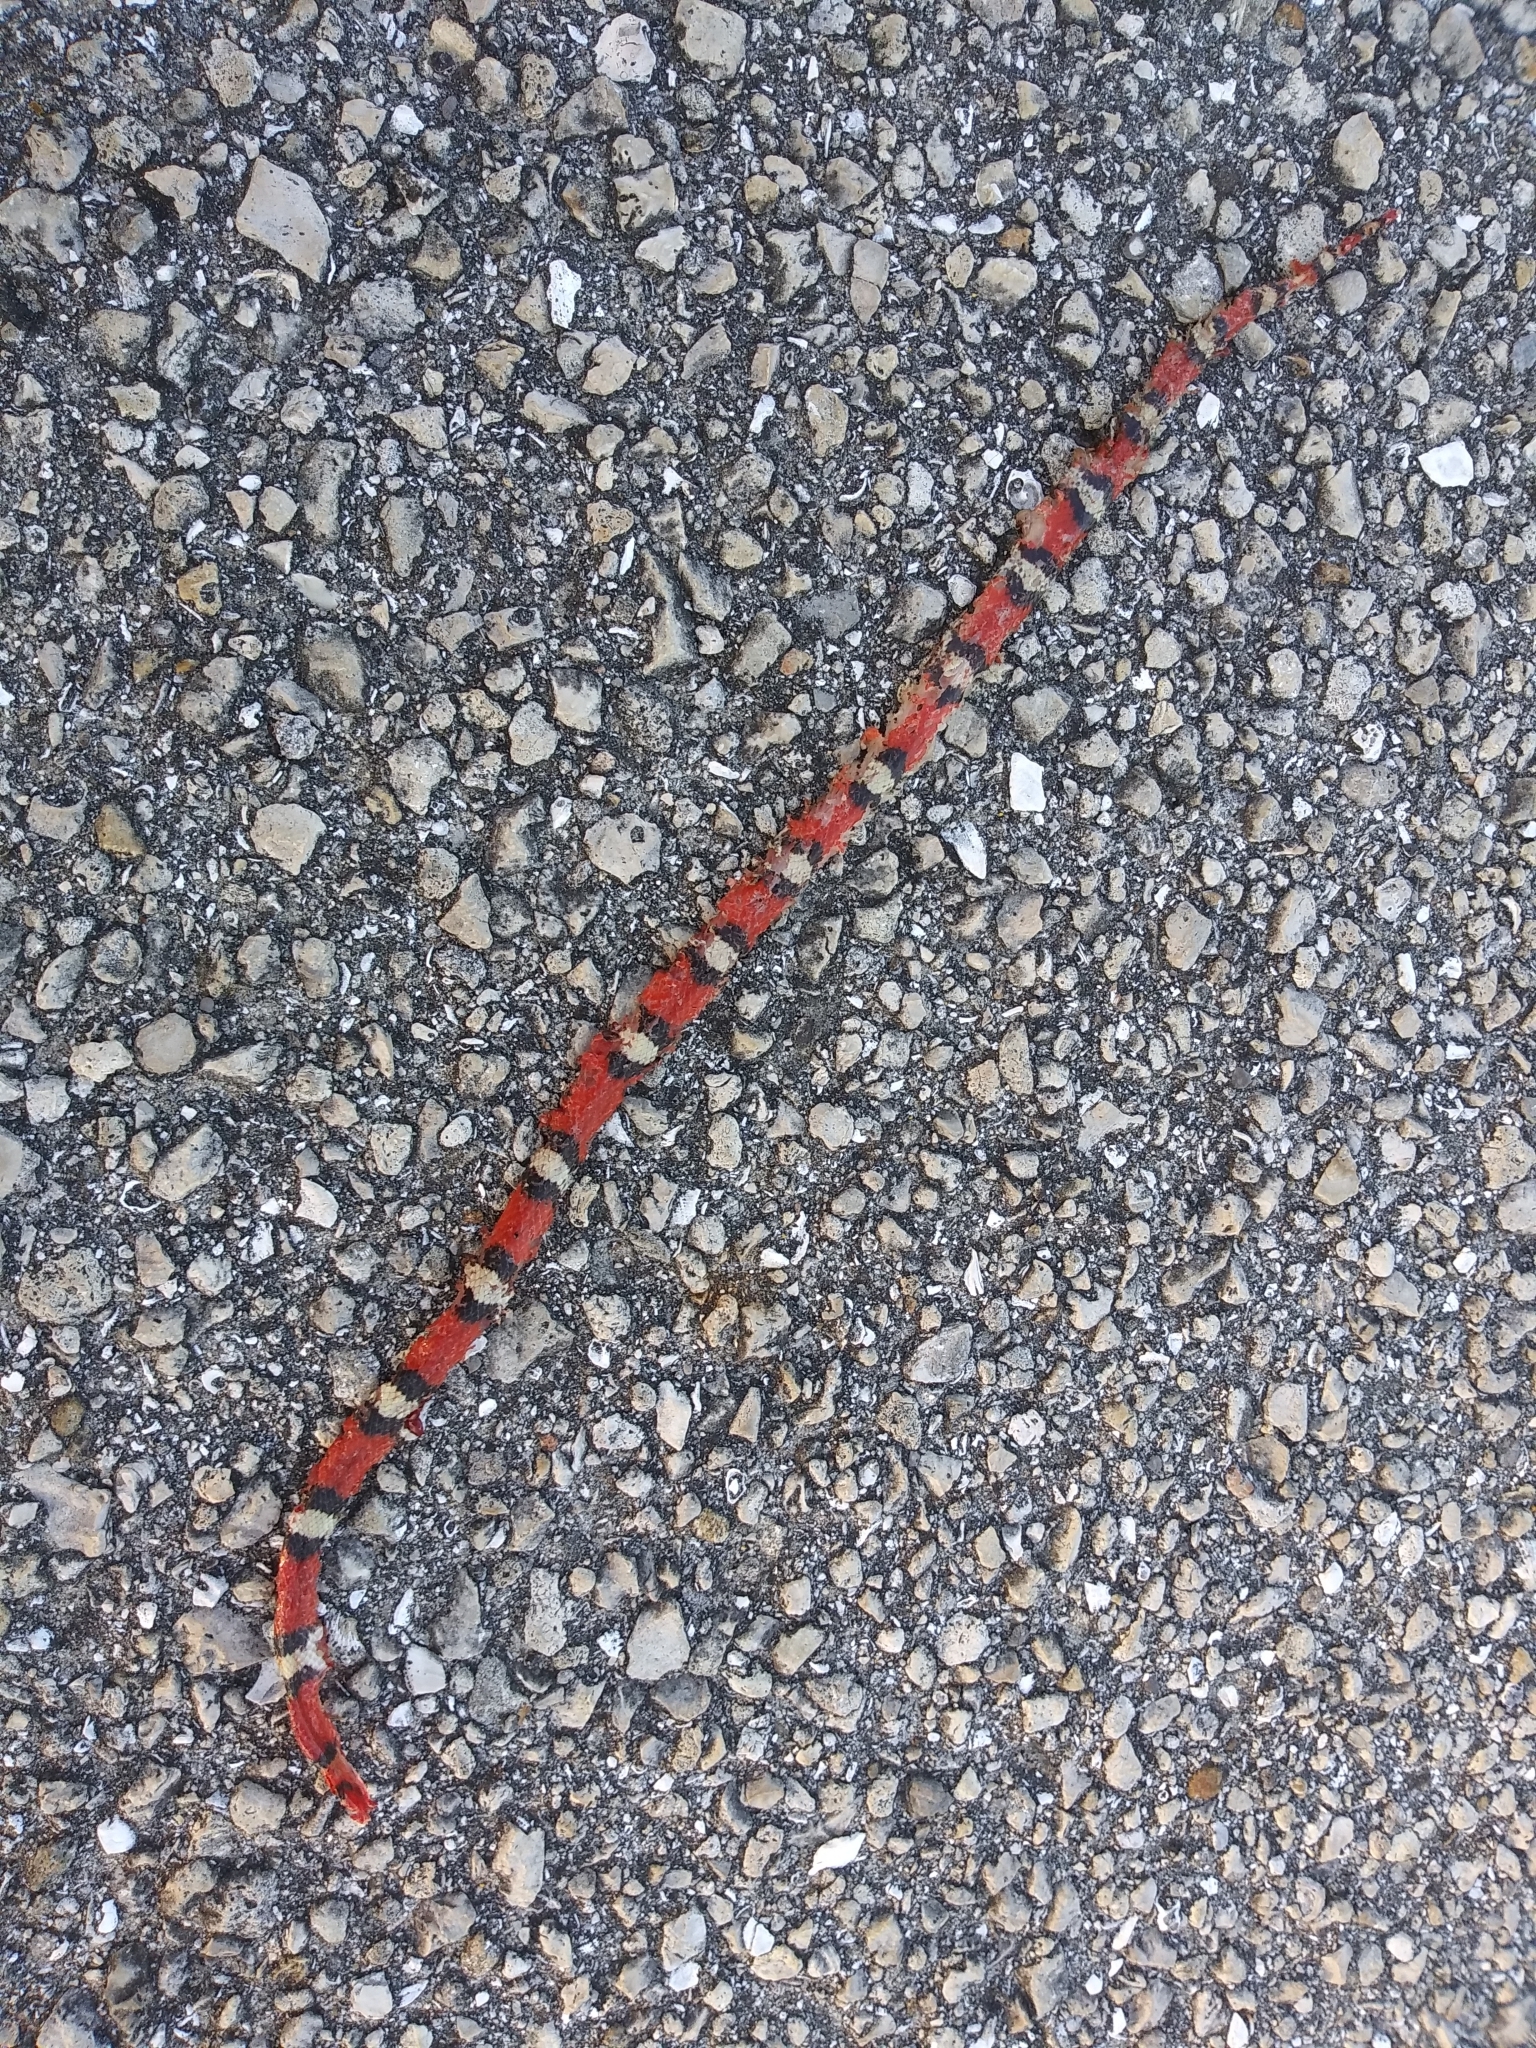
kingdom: Animalia
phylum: Chordata
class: Squamata
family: Colubridae
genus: Cemophora
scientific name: Cemophora coccinea
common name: Scarlet snake
